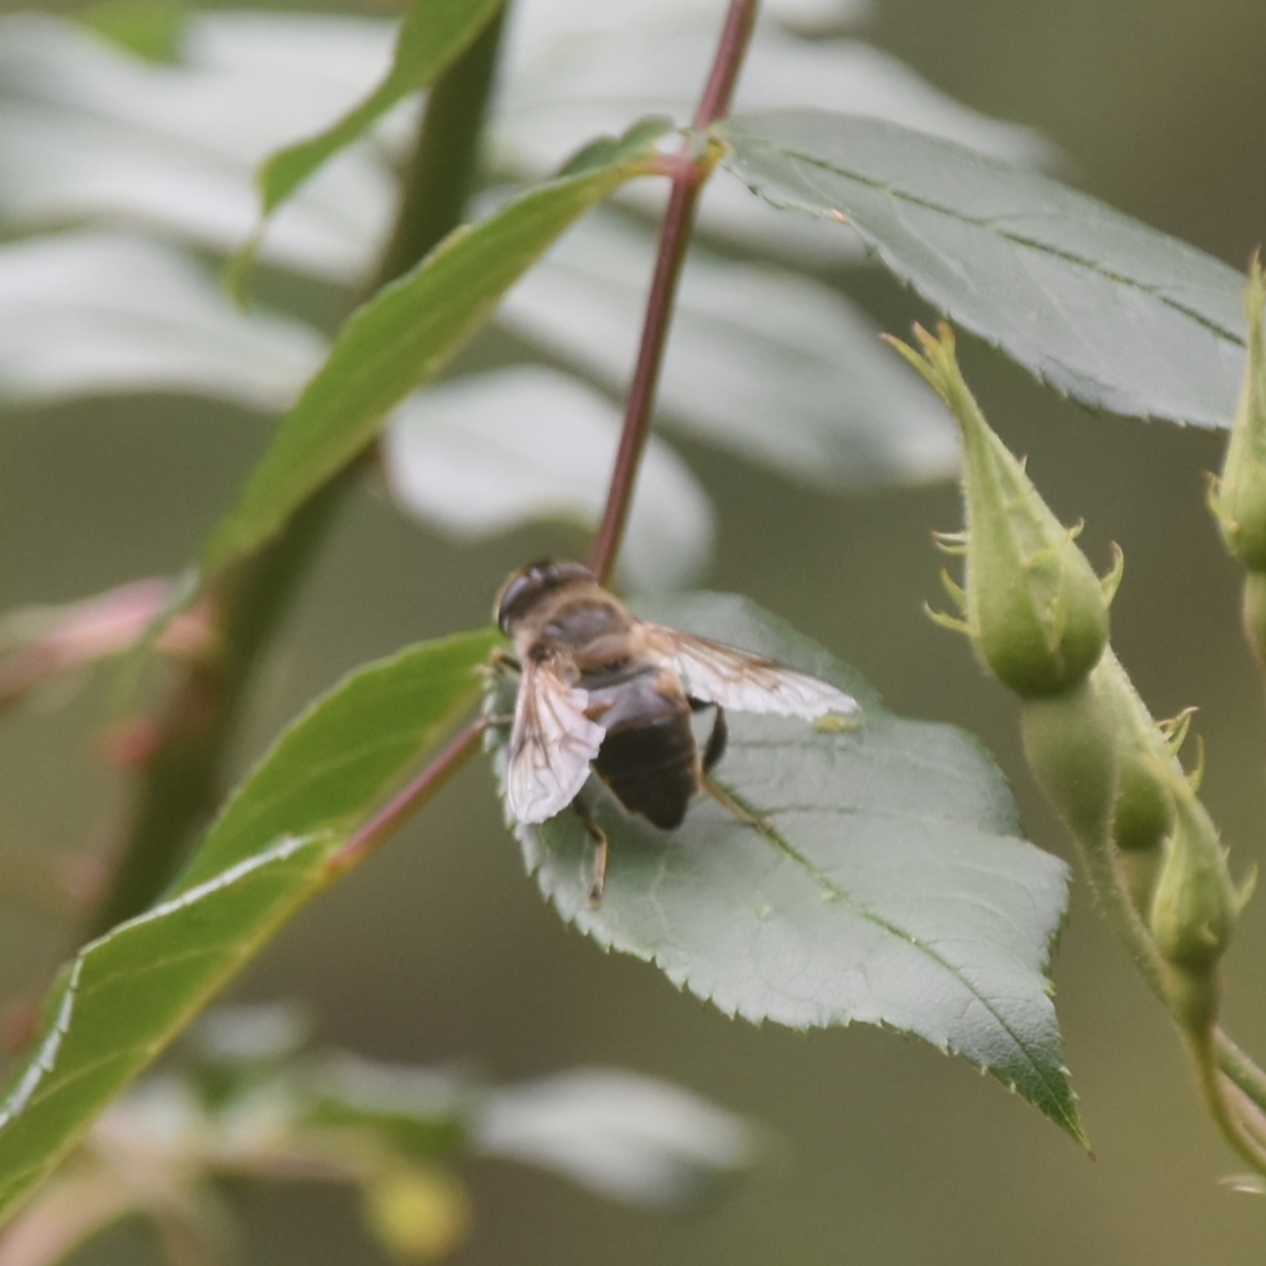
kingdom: Animalia
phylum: Arthropoda
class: Insecta
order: Diptera
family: Syrphidae
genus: Eristalis
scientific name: Eristalis tenax
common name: Drone fly
